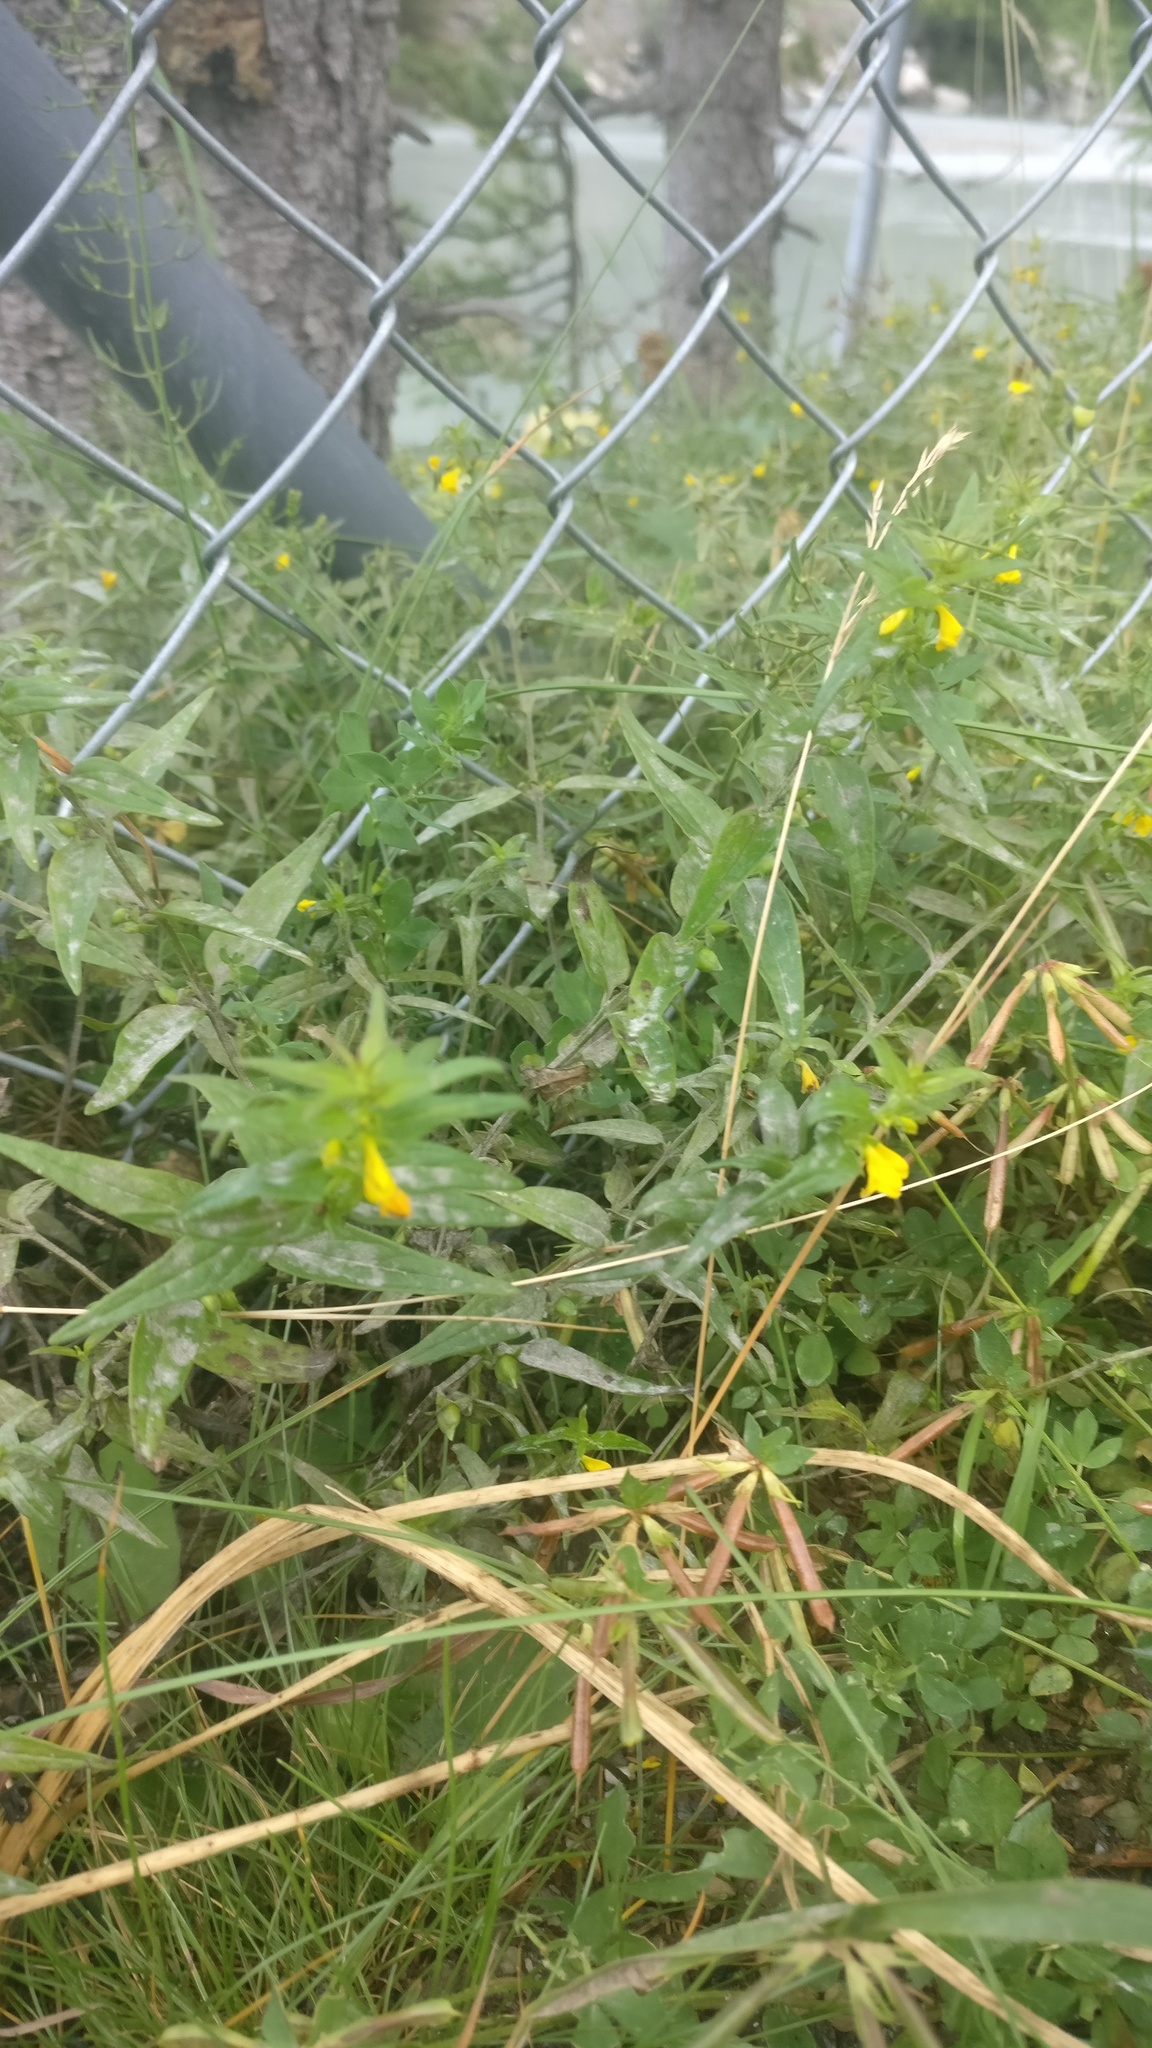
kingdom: Plantae
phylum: Tracheophyta
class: Magnoliopsida
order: Lamiales
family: Orobanchaceae
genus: Melampyrum
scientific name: Melampyrum sylvaticum
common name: Small cow-wheat
